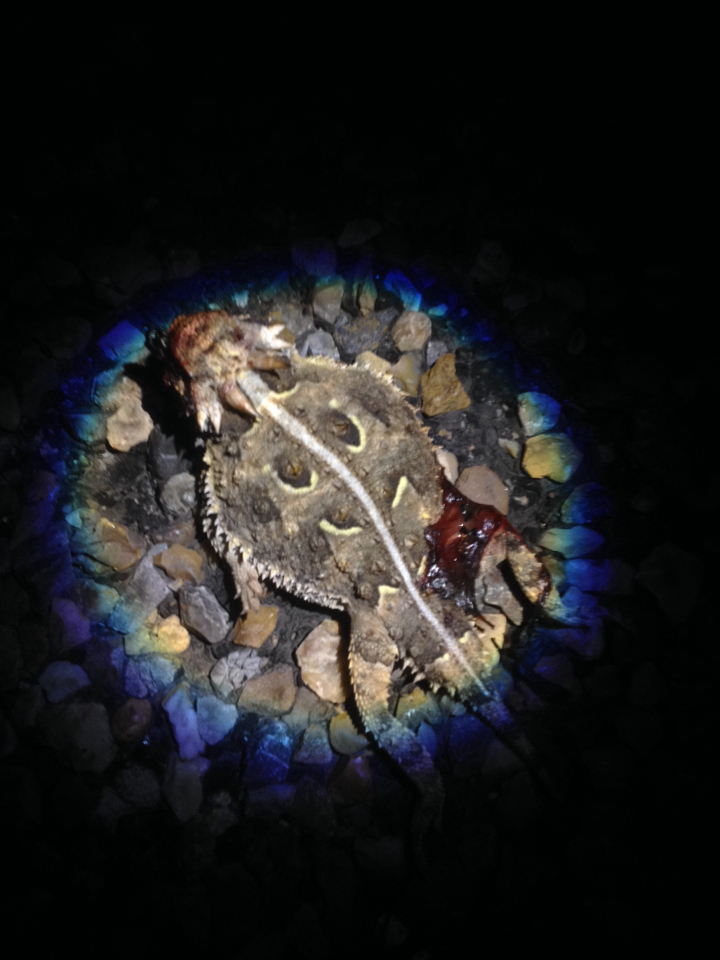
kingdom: Animalia
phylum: Chordata
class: Squamata
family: Phrynosomatidae
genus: Phrynosoma
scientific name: Phrynosoma cornutum
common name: Texas horned lizard
